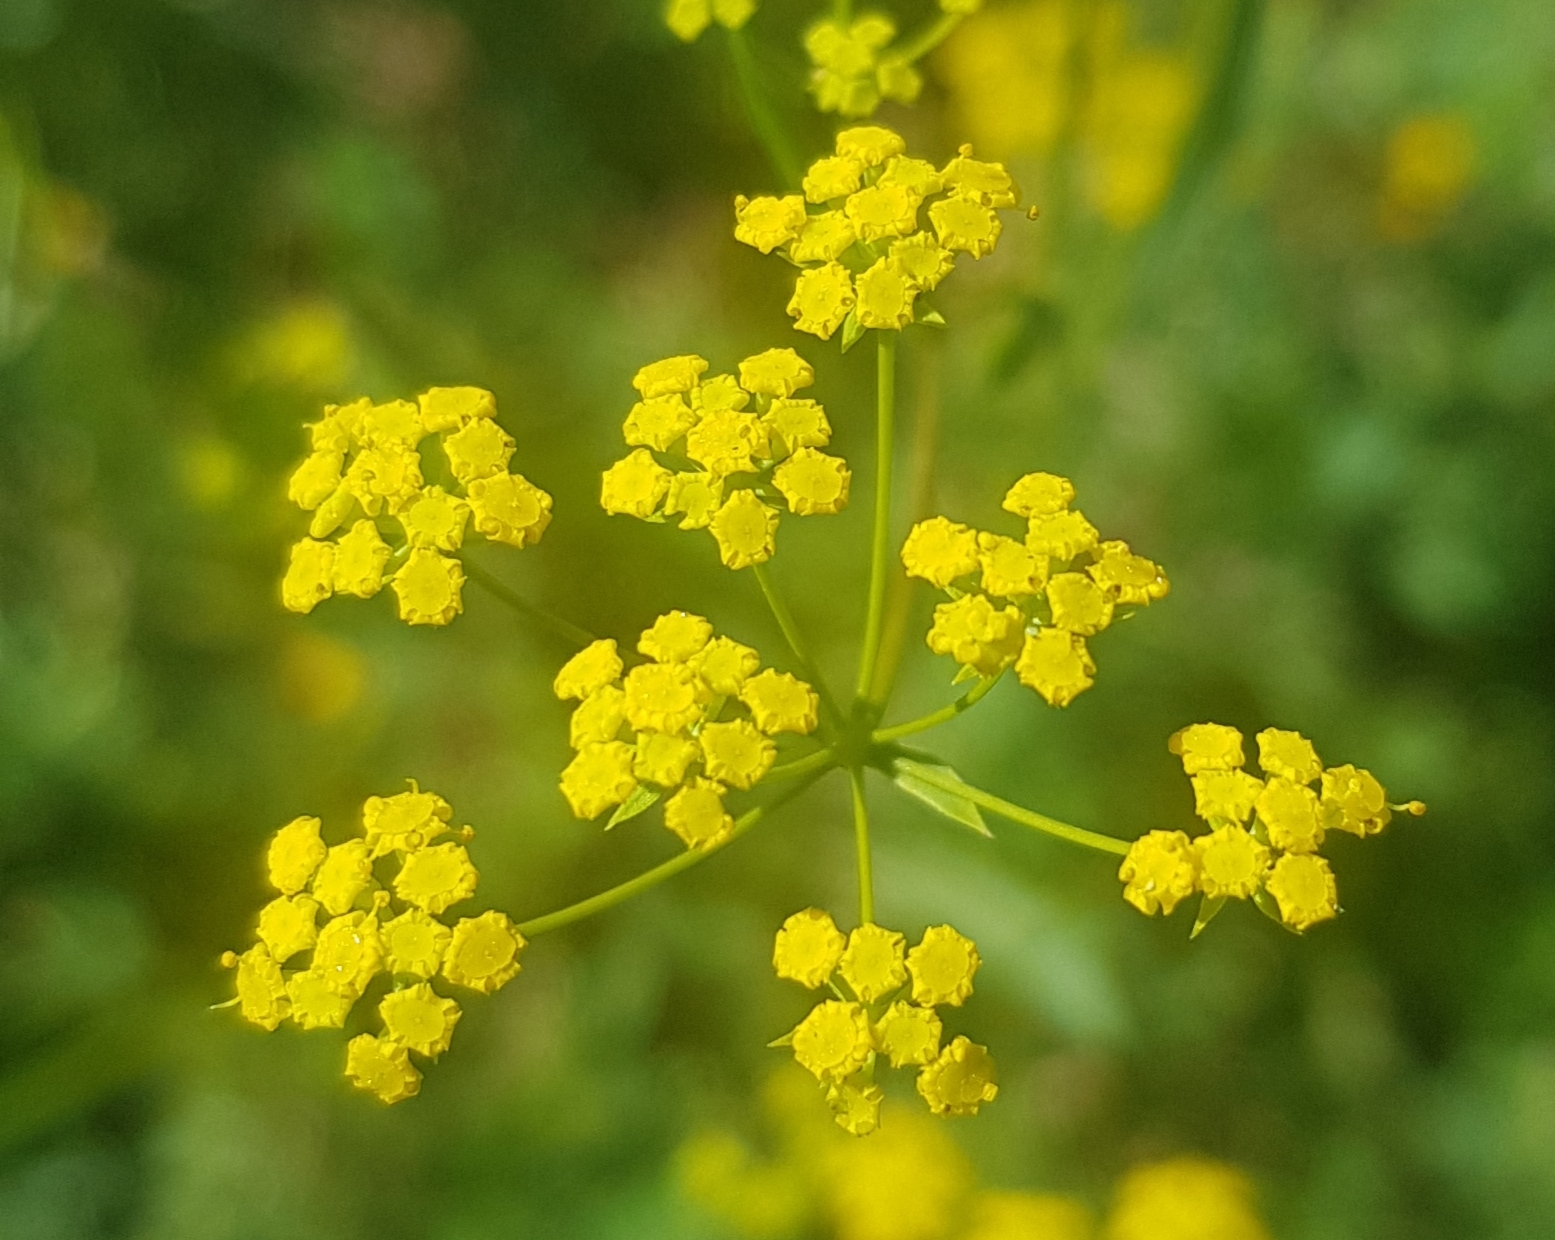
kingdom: Plantae
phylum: Tracheophyta
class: Magnoliopsida
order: Apiales
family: Apiaceae
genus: Bupleurum
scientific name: Bupleurum scorzonerifolium
